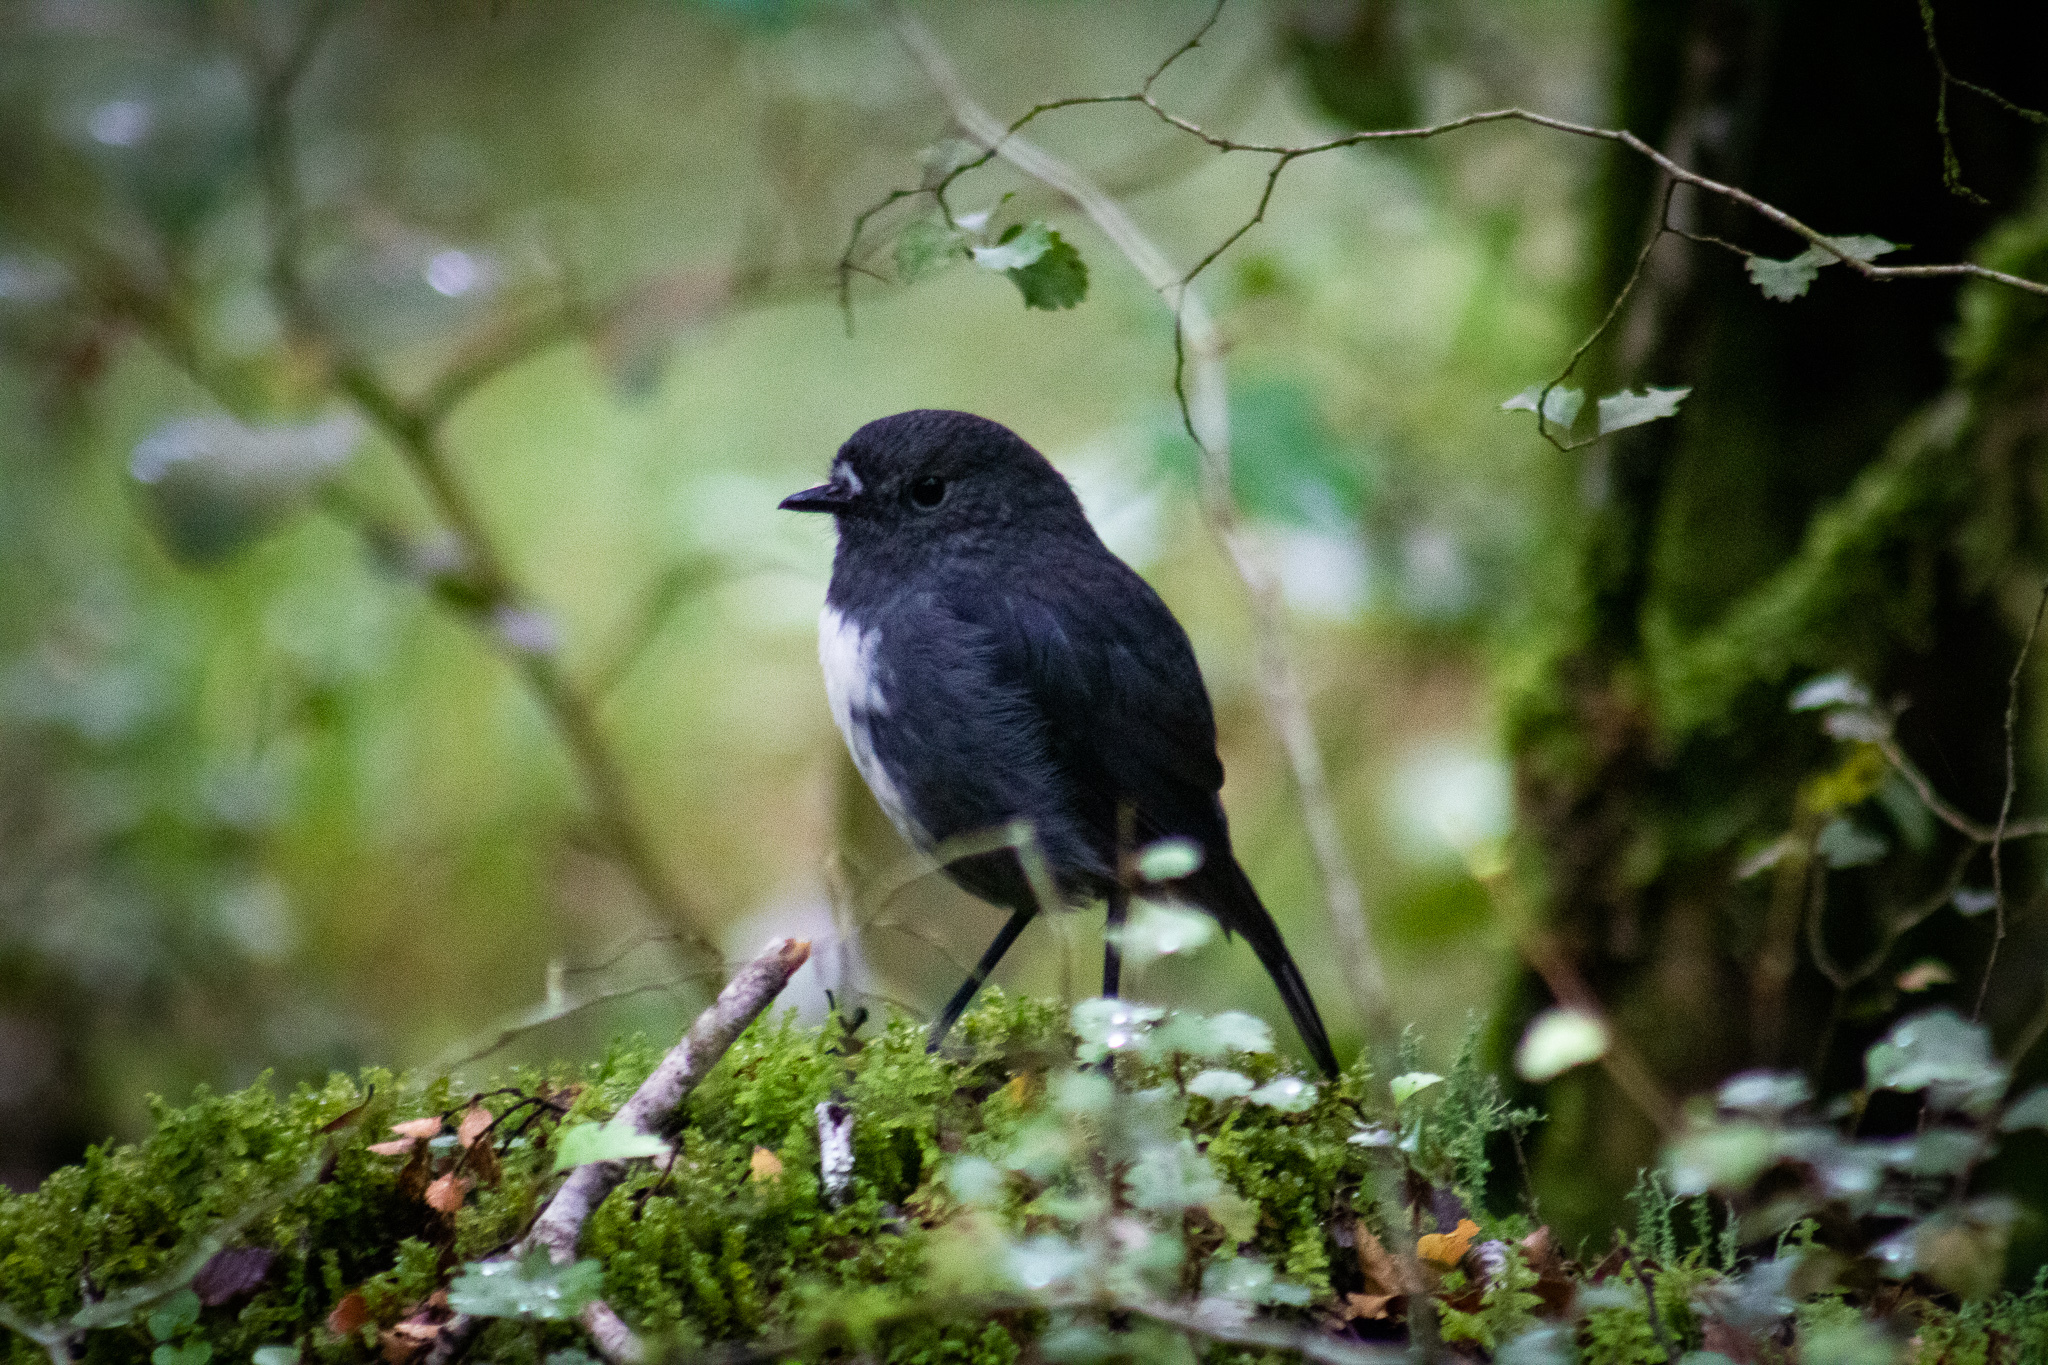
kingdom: Animalia
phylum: Chordata
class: Aves
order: Passeriformes
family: Petroicidae
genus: Petroica
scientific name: Petroica australis
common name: New zealand robin
